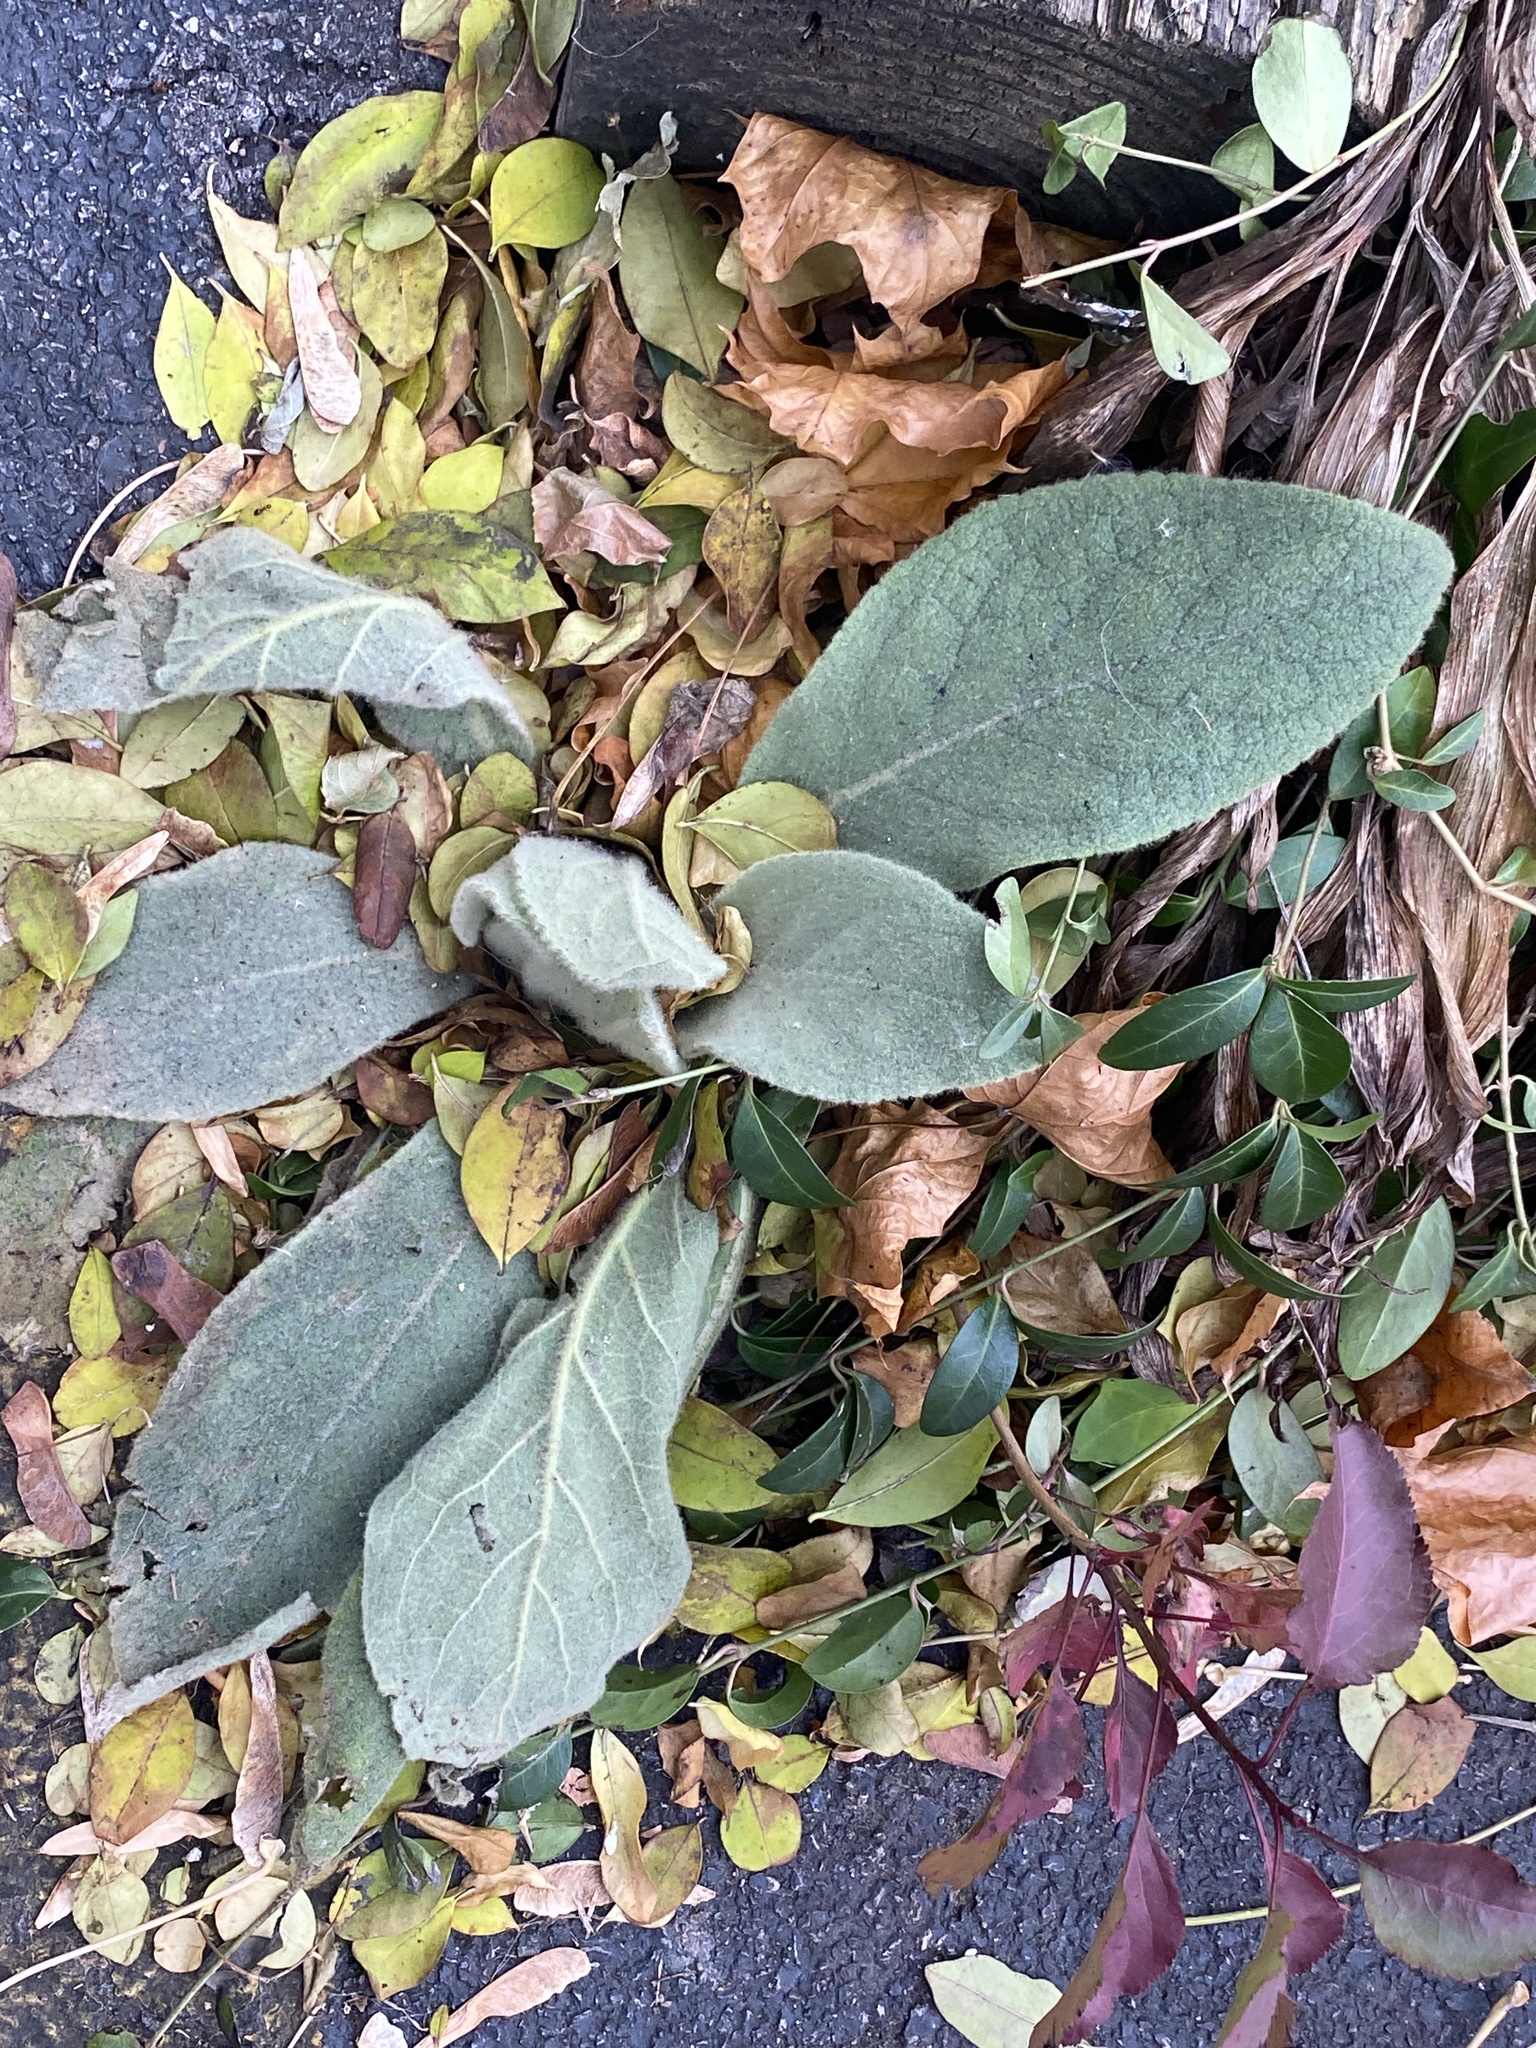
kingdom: Plantae
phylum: Tracheophyta
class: Magnoliopsida
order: Lamiales
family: Scrophulariaceae
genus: Verbascum
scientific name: Verbascum thapsus
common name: Common mullein
